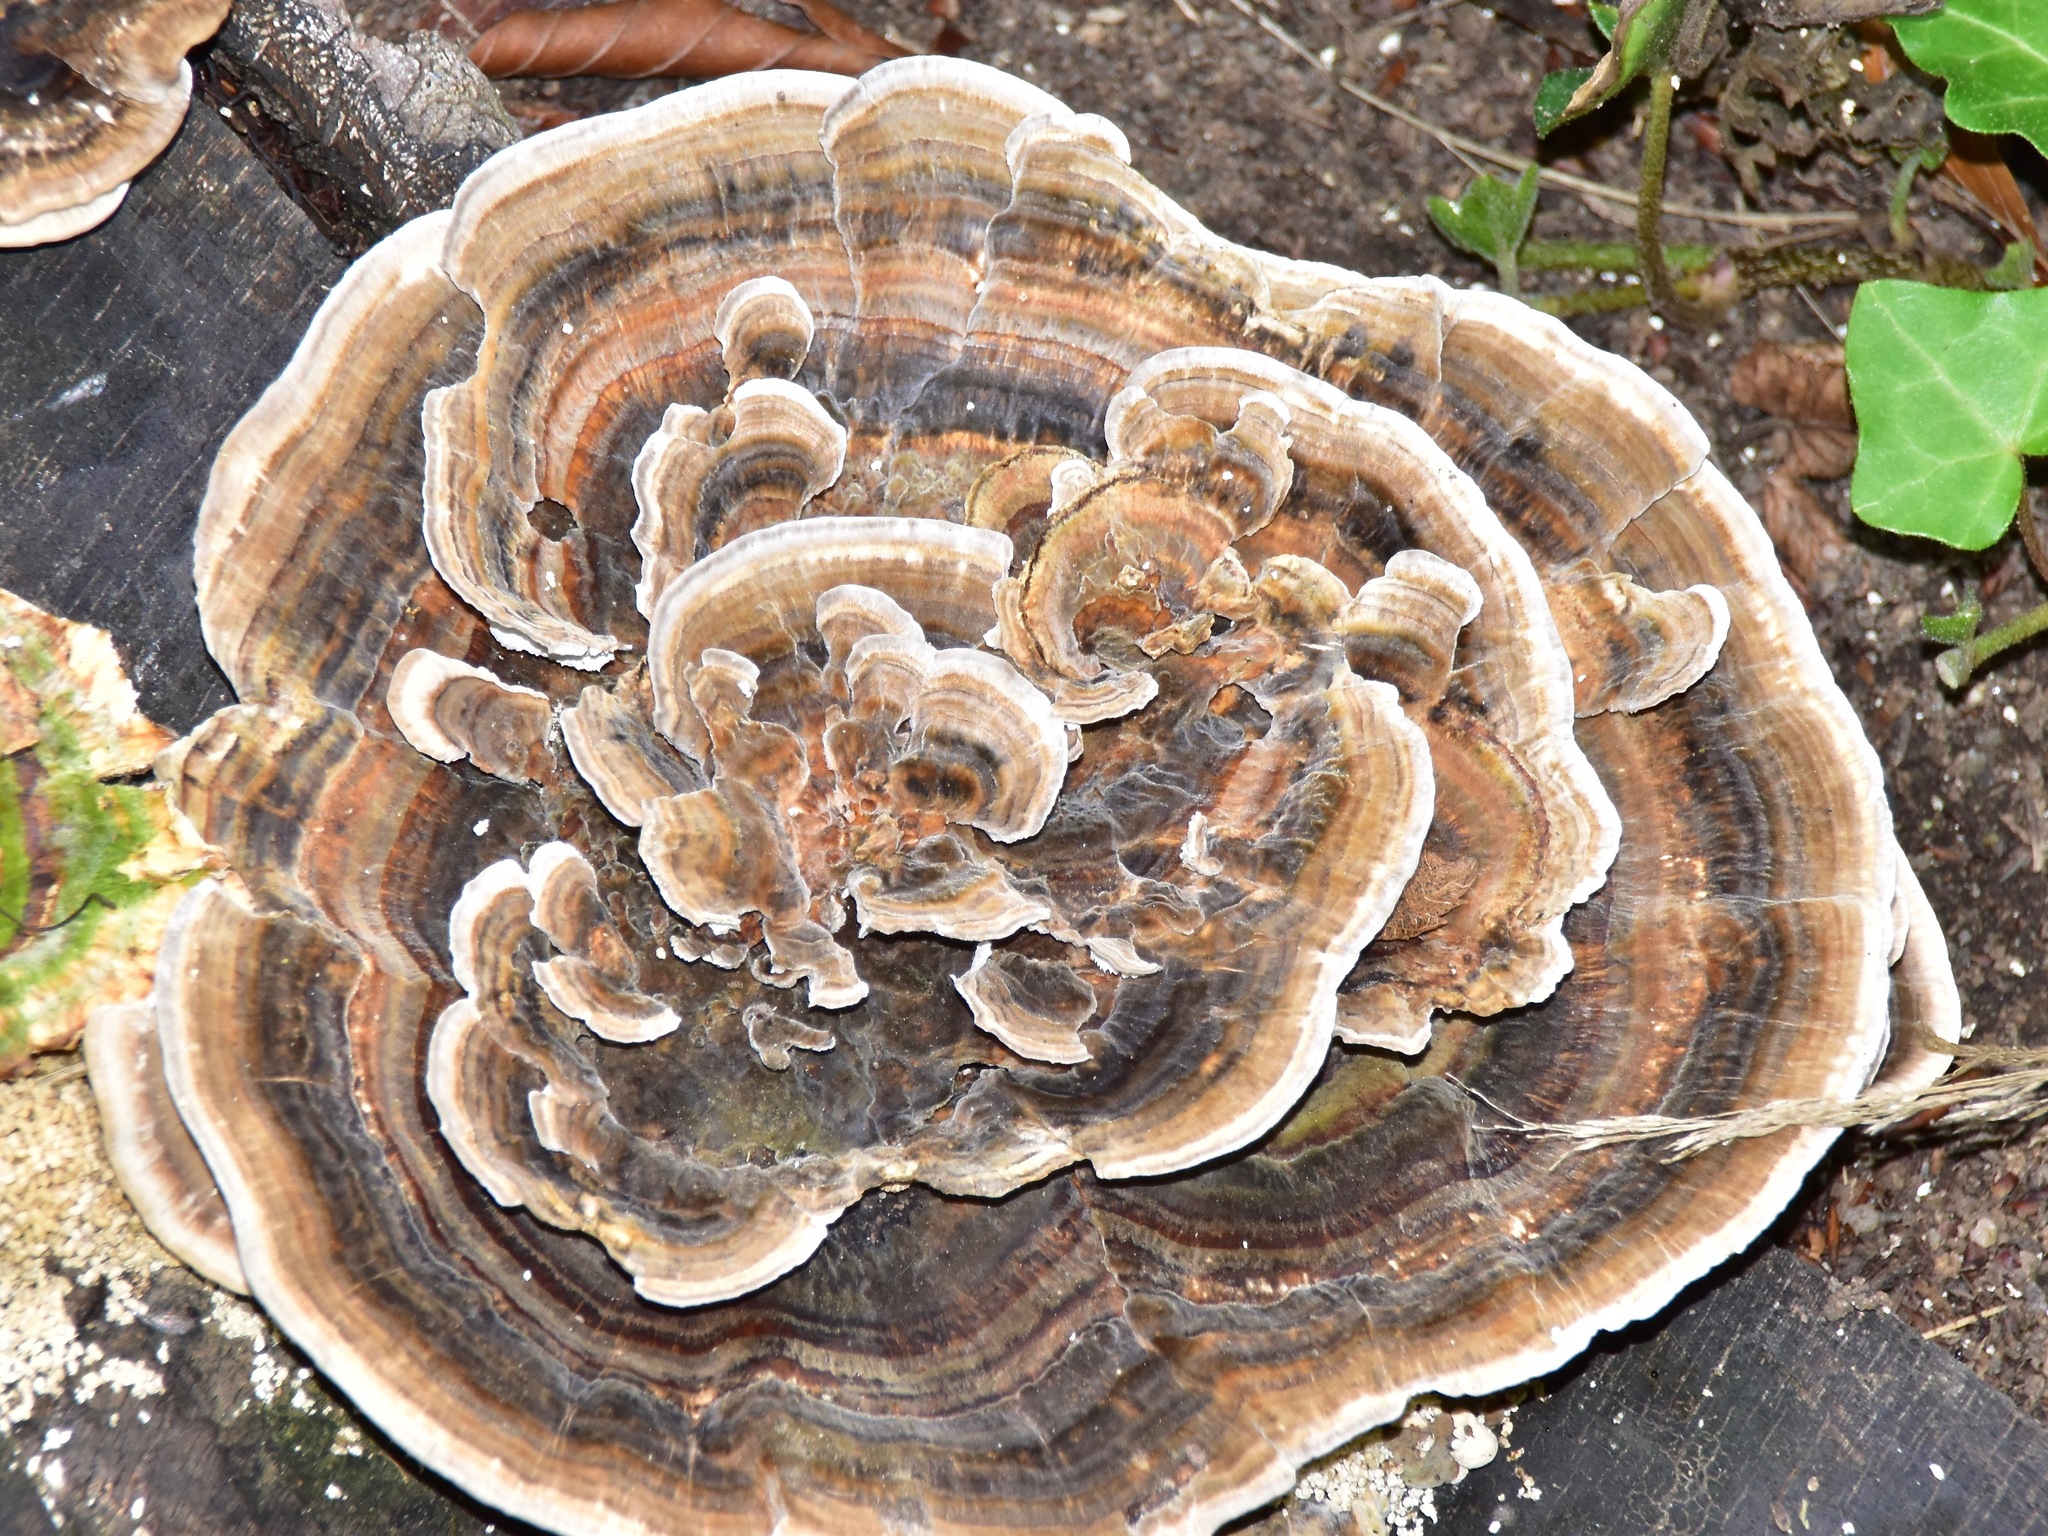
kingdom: Fungi
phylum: Basidiomycota
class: Agaricomycetes
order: Polyporales
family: Polyporaceae
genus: Trametes
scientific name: Trametes versicolor
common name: Turkeytail
